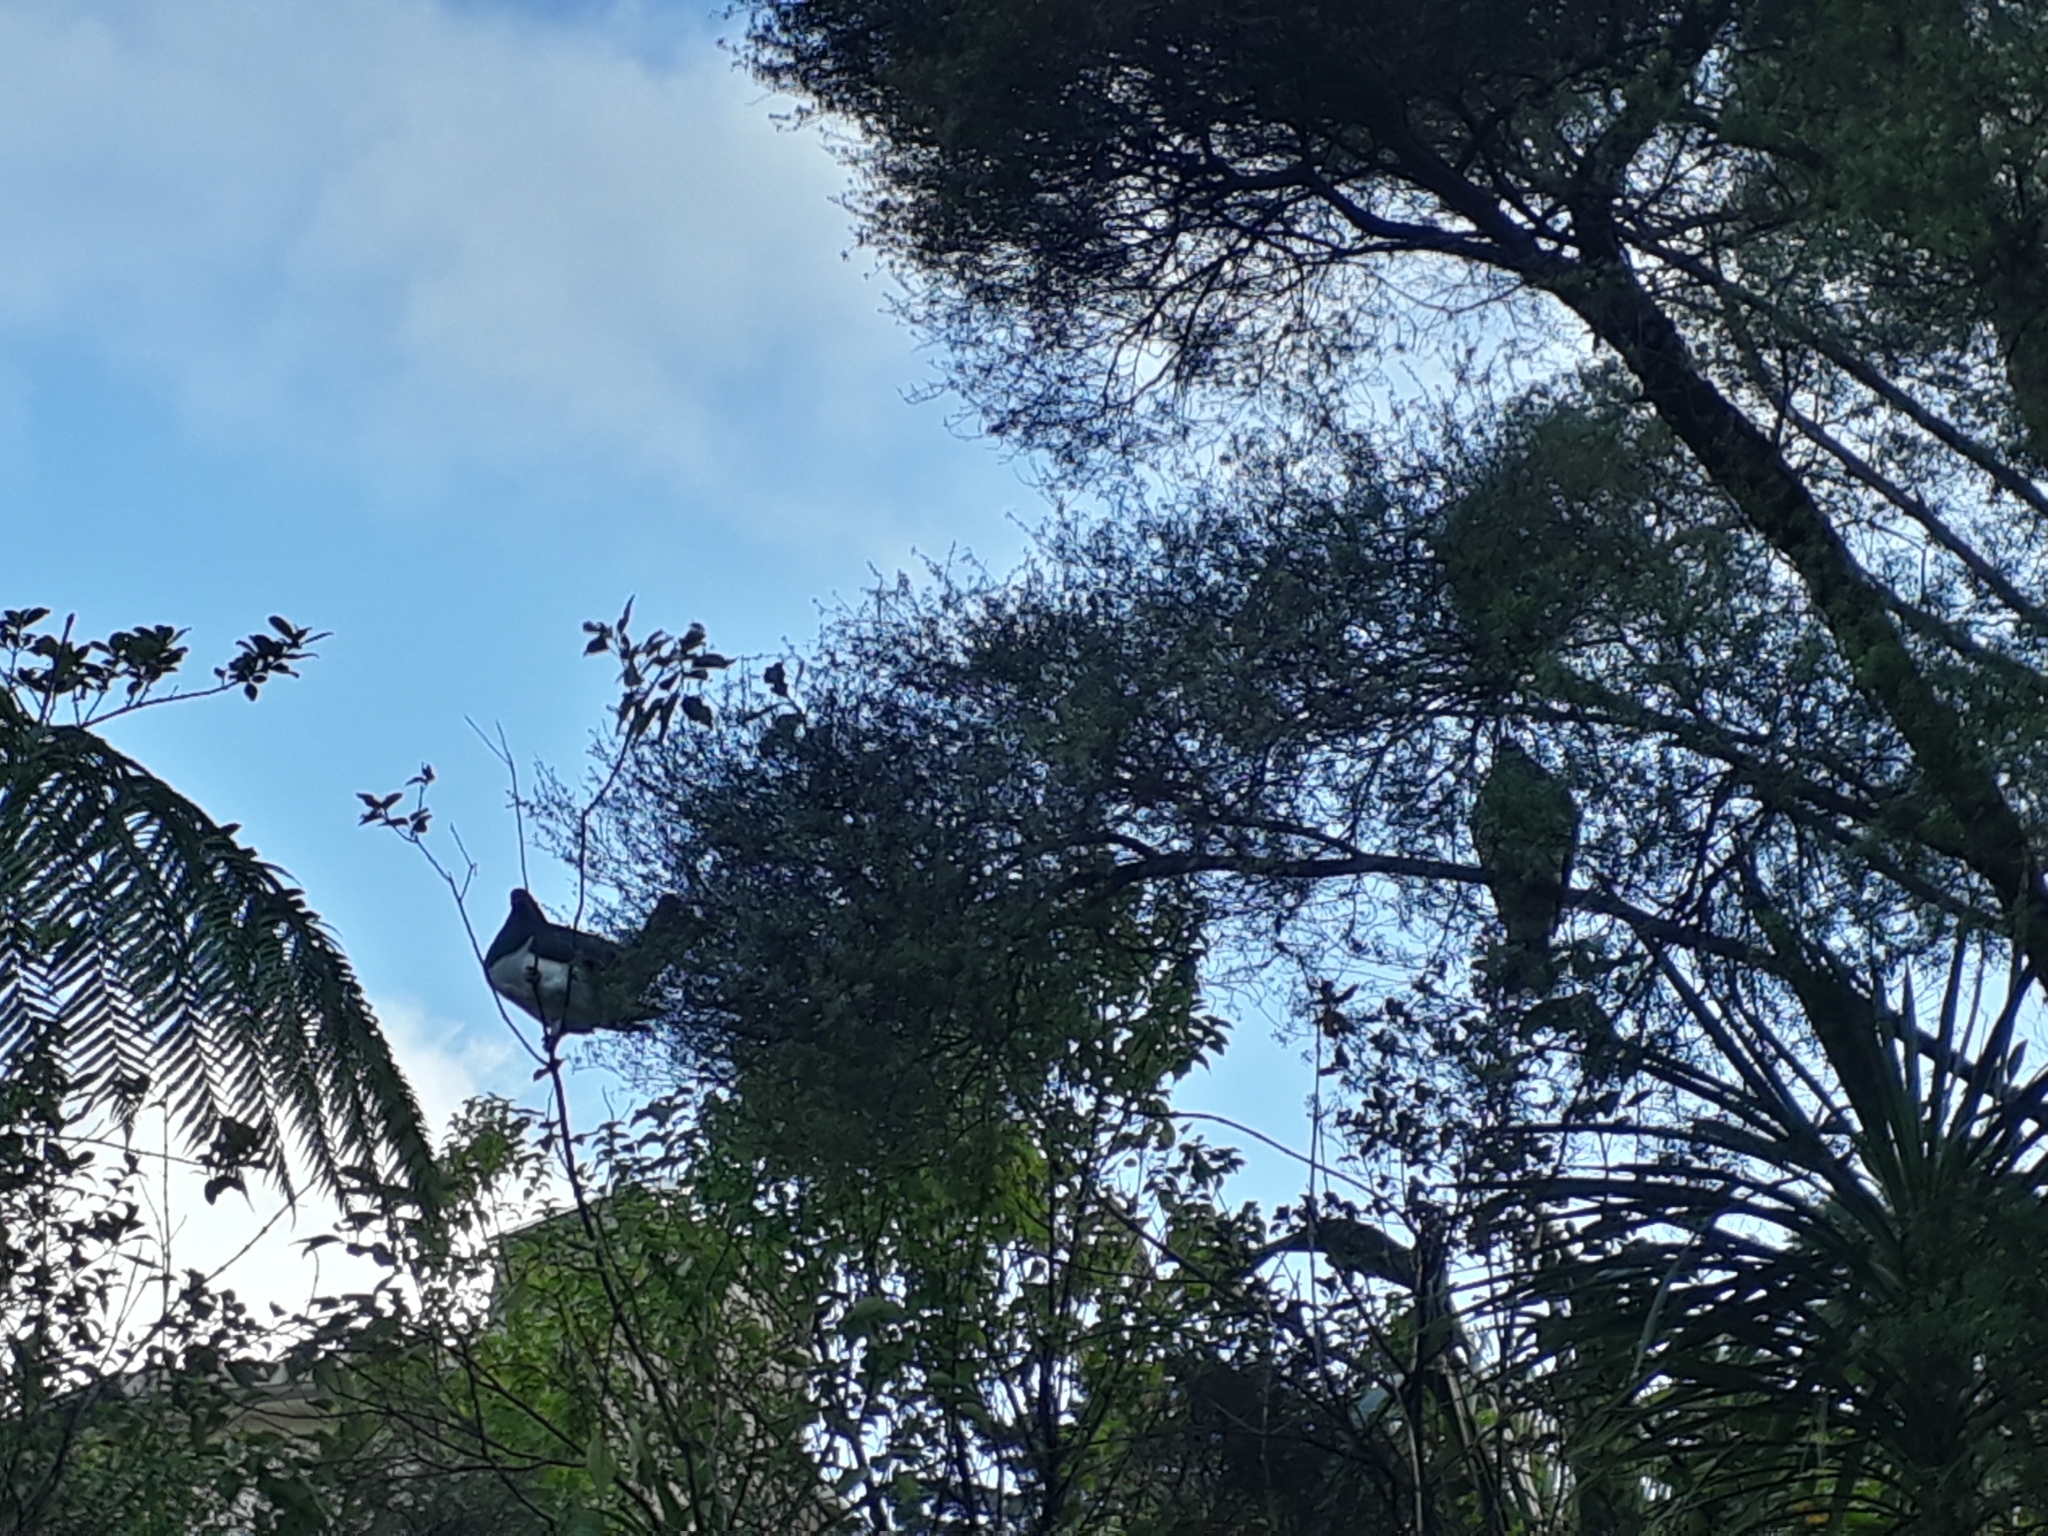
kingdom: Animalia
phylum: Chordata
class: Aves
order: Columbiformes
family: Columbidae
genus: Hemiphaga
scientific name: Hemiphaga novaeseelandiae
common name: New zealand pigeon
